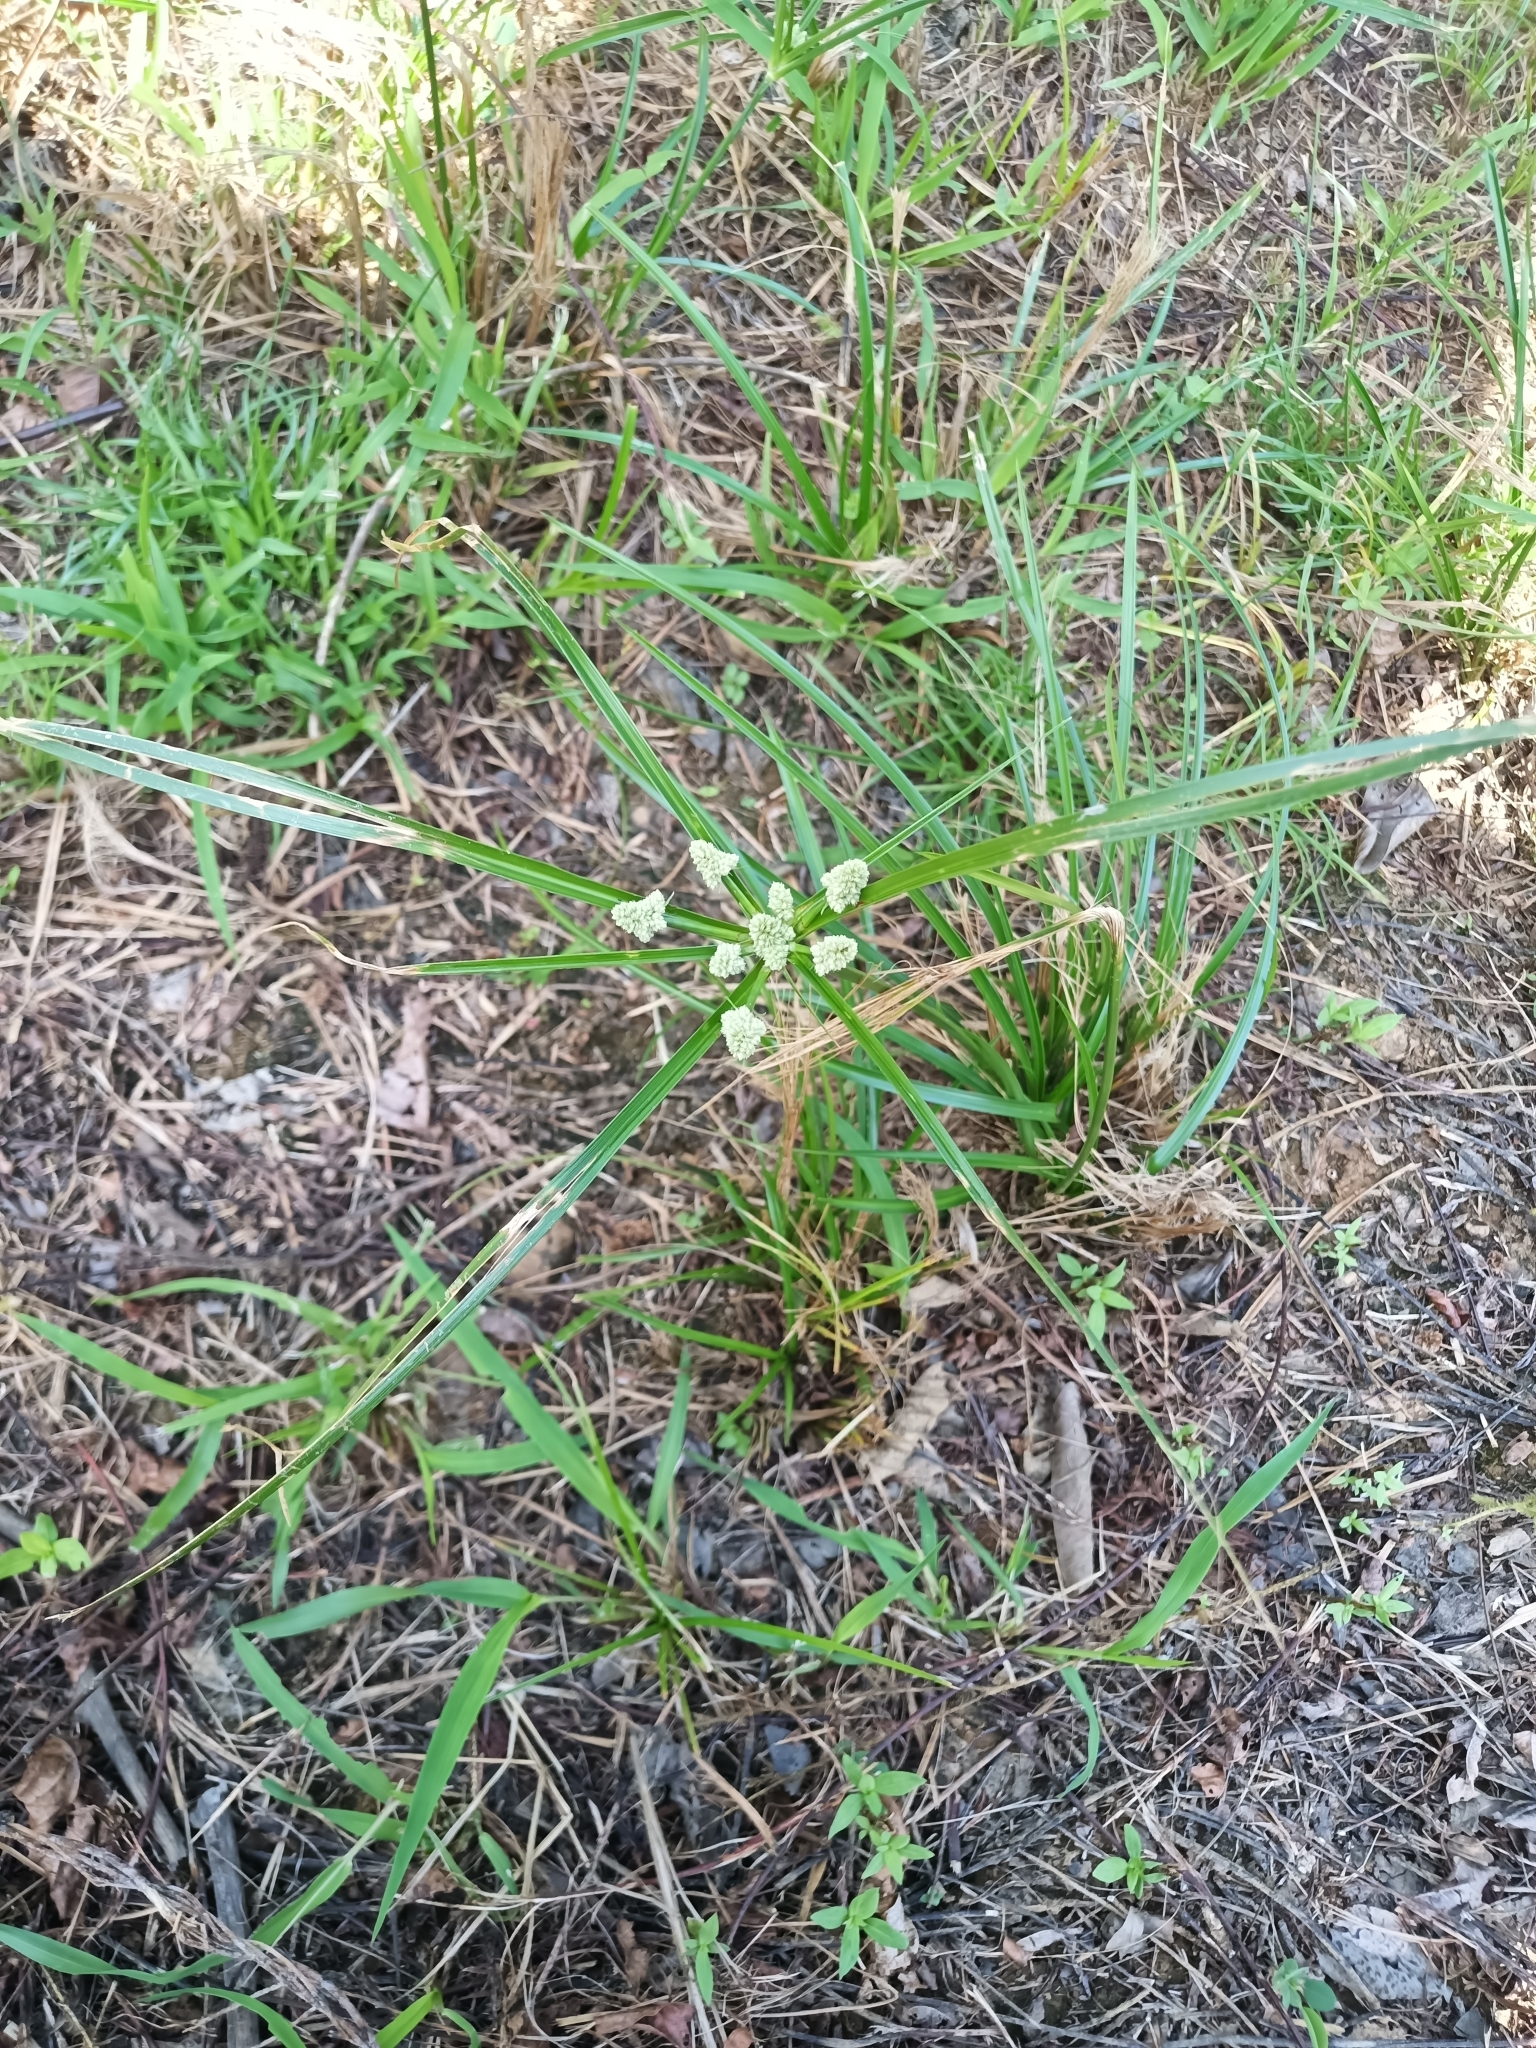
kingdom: Plantae
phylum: Tracheophyta
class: Liliopsida
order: Poales
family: Cyperaceae
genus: Cyperus
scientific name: Cyperus luzulae
